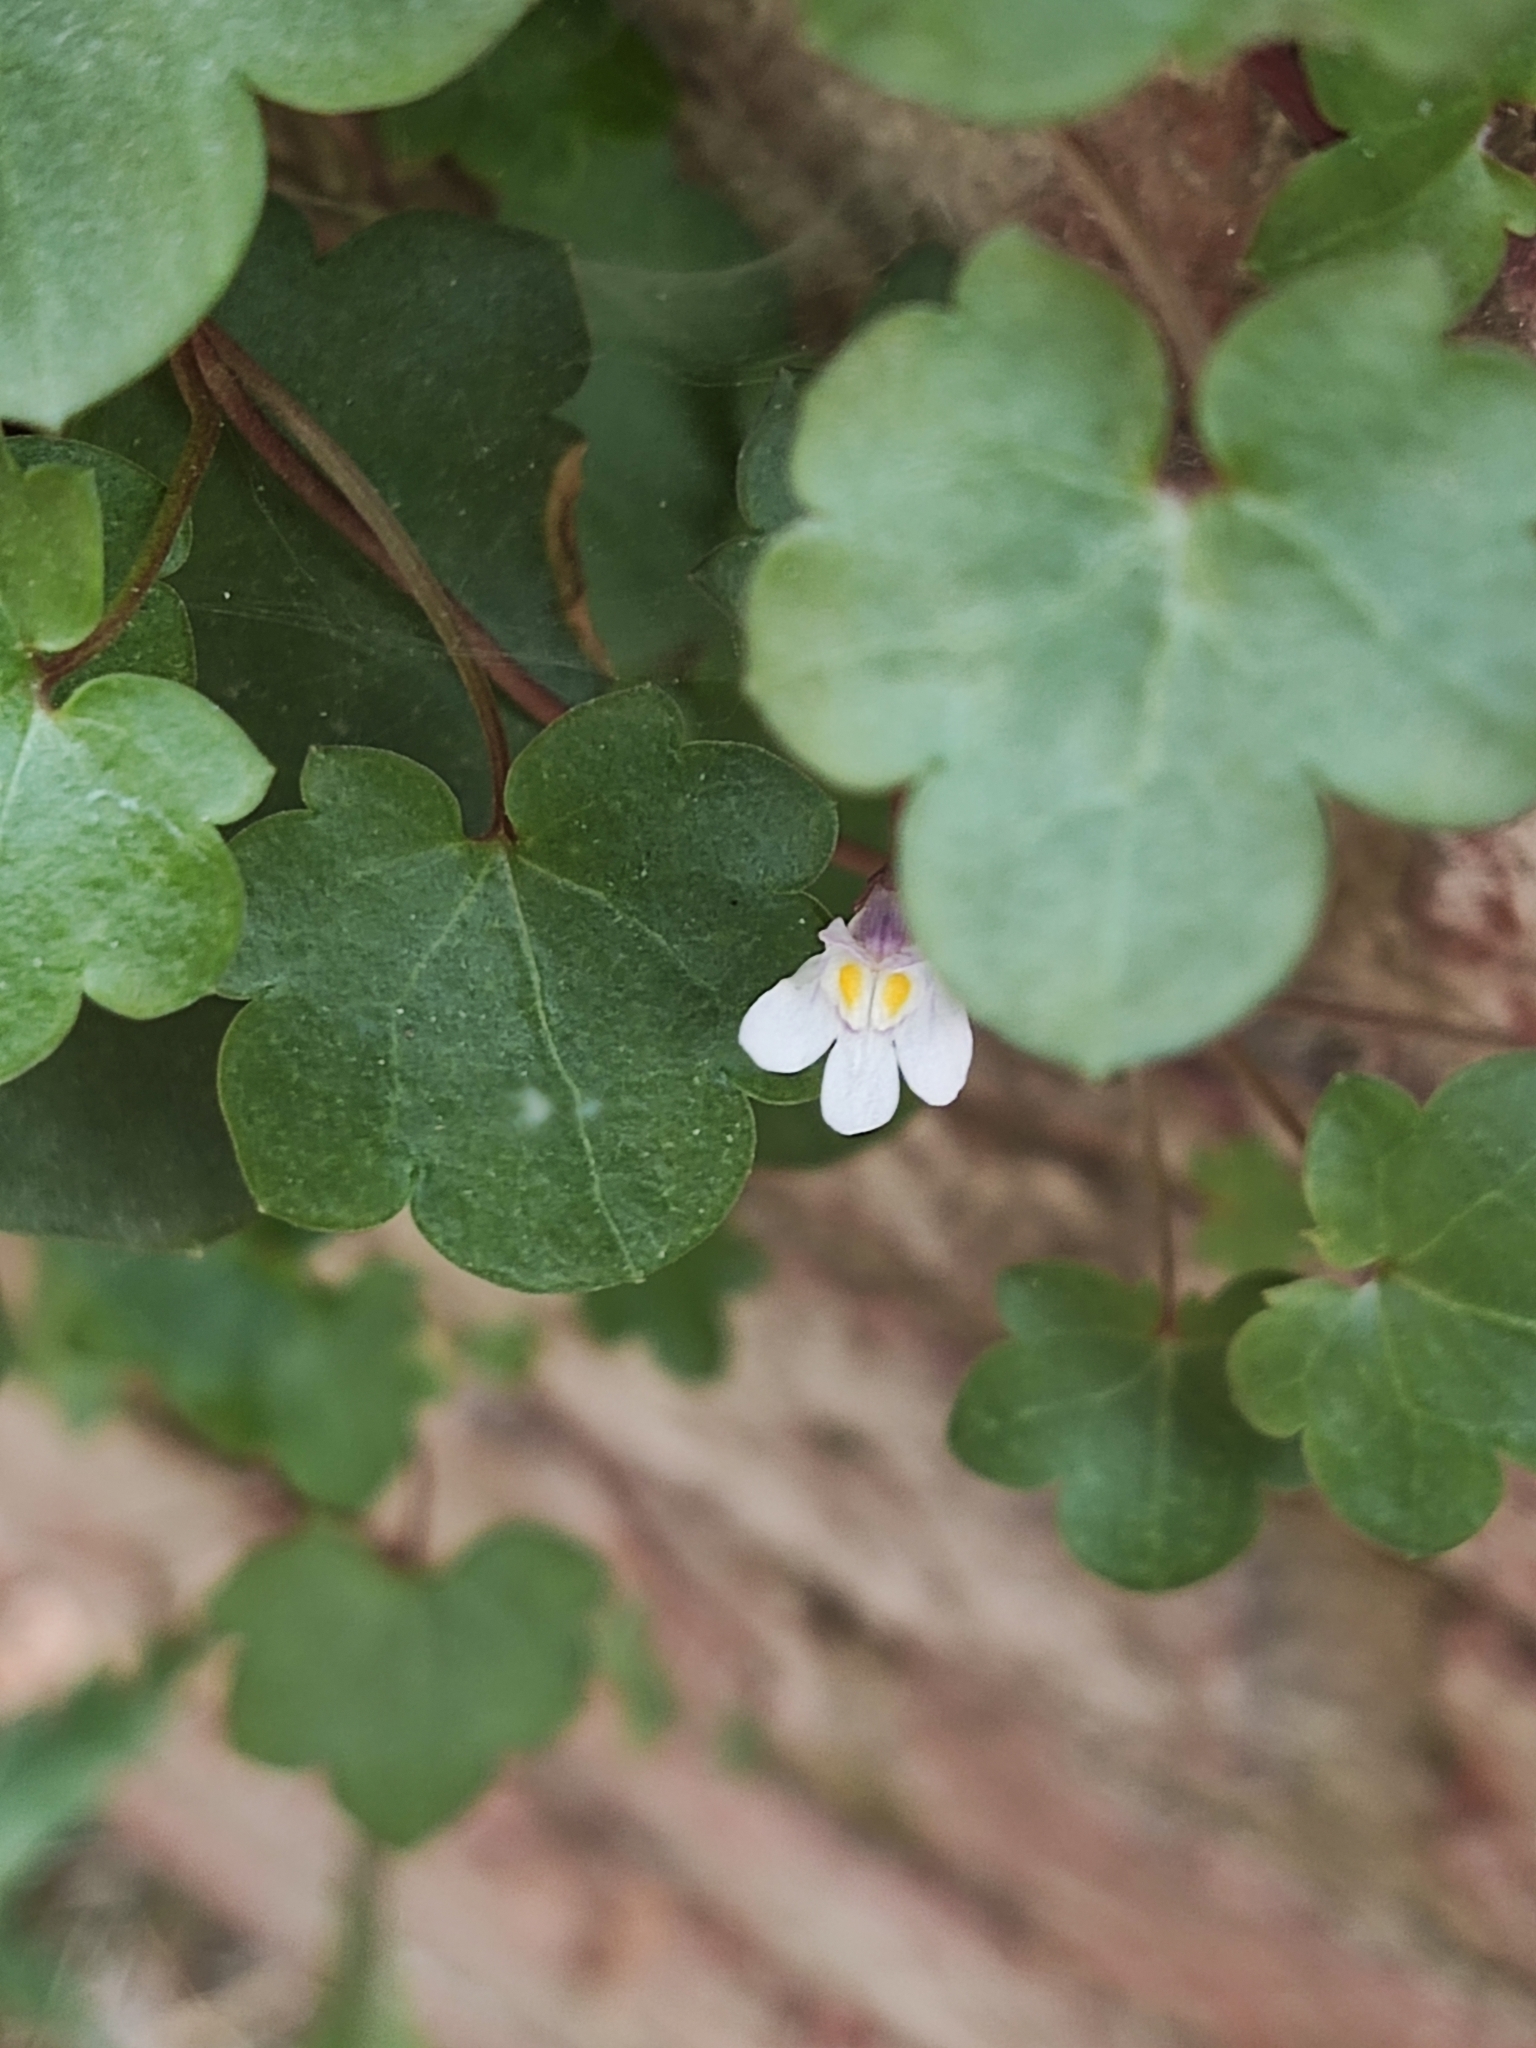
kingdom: Plantae
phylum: Tracheophyta
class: Magnoliopsida
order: Lamiales
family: Plantaginaceae
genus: Cymbalaria
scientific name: Cymbalaria muralis
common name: Ivy-leaved toadflax
